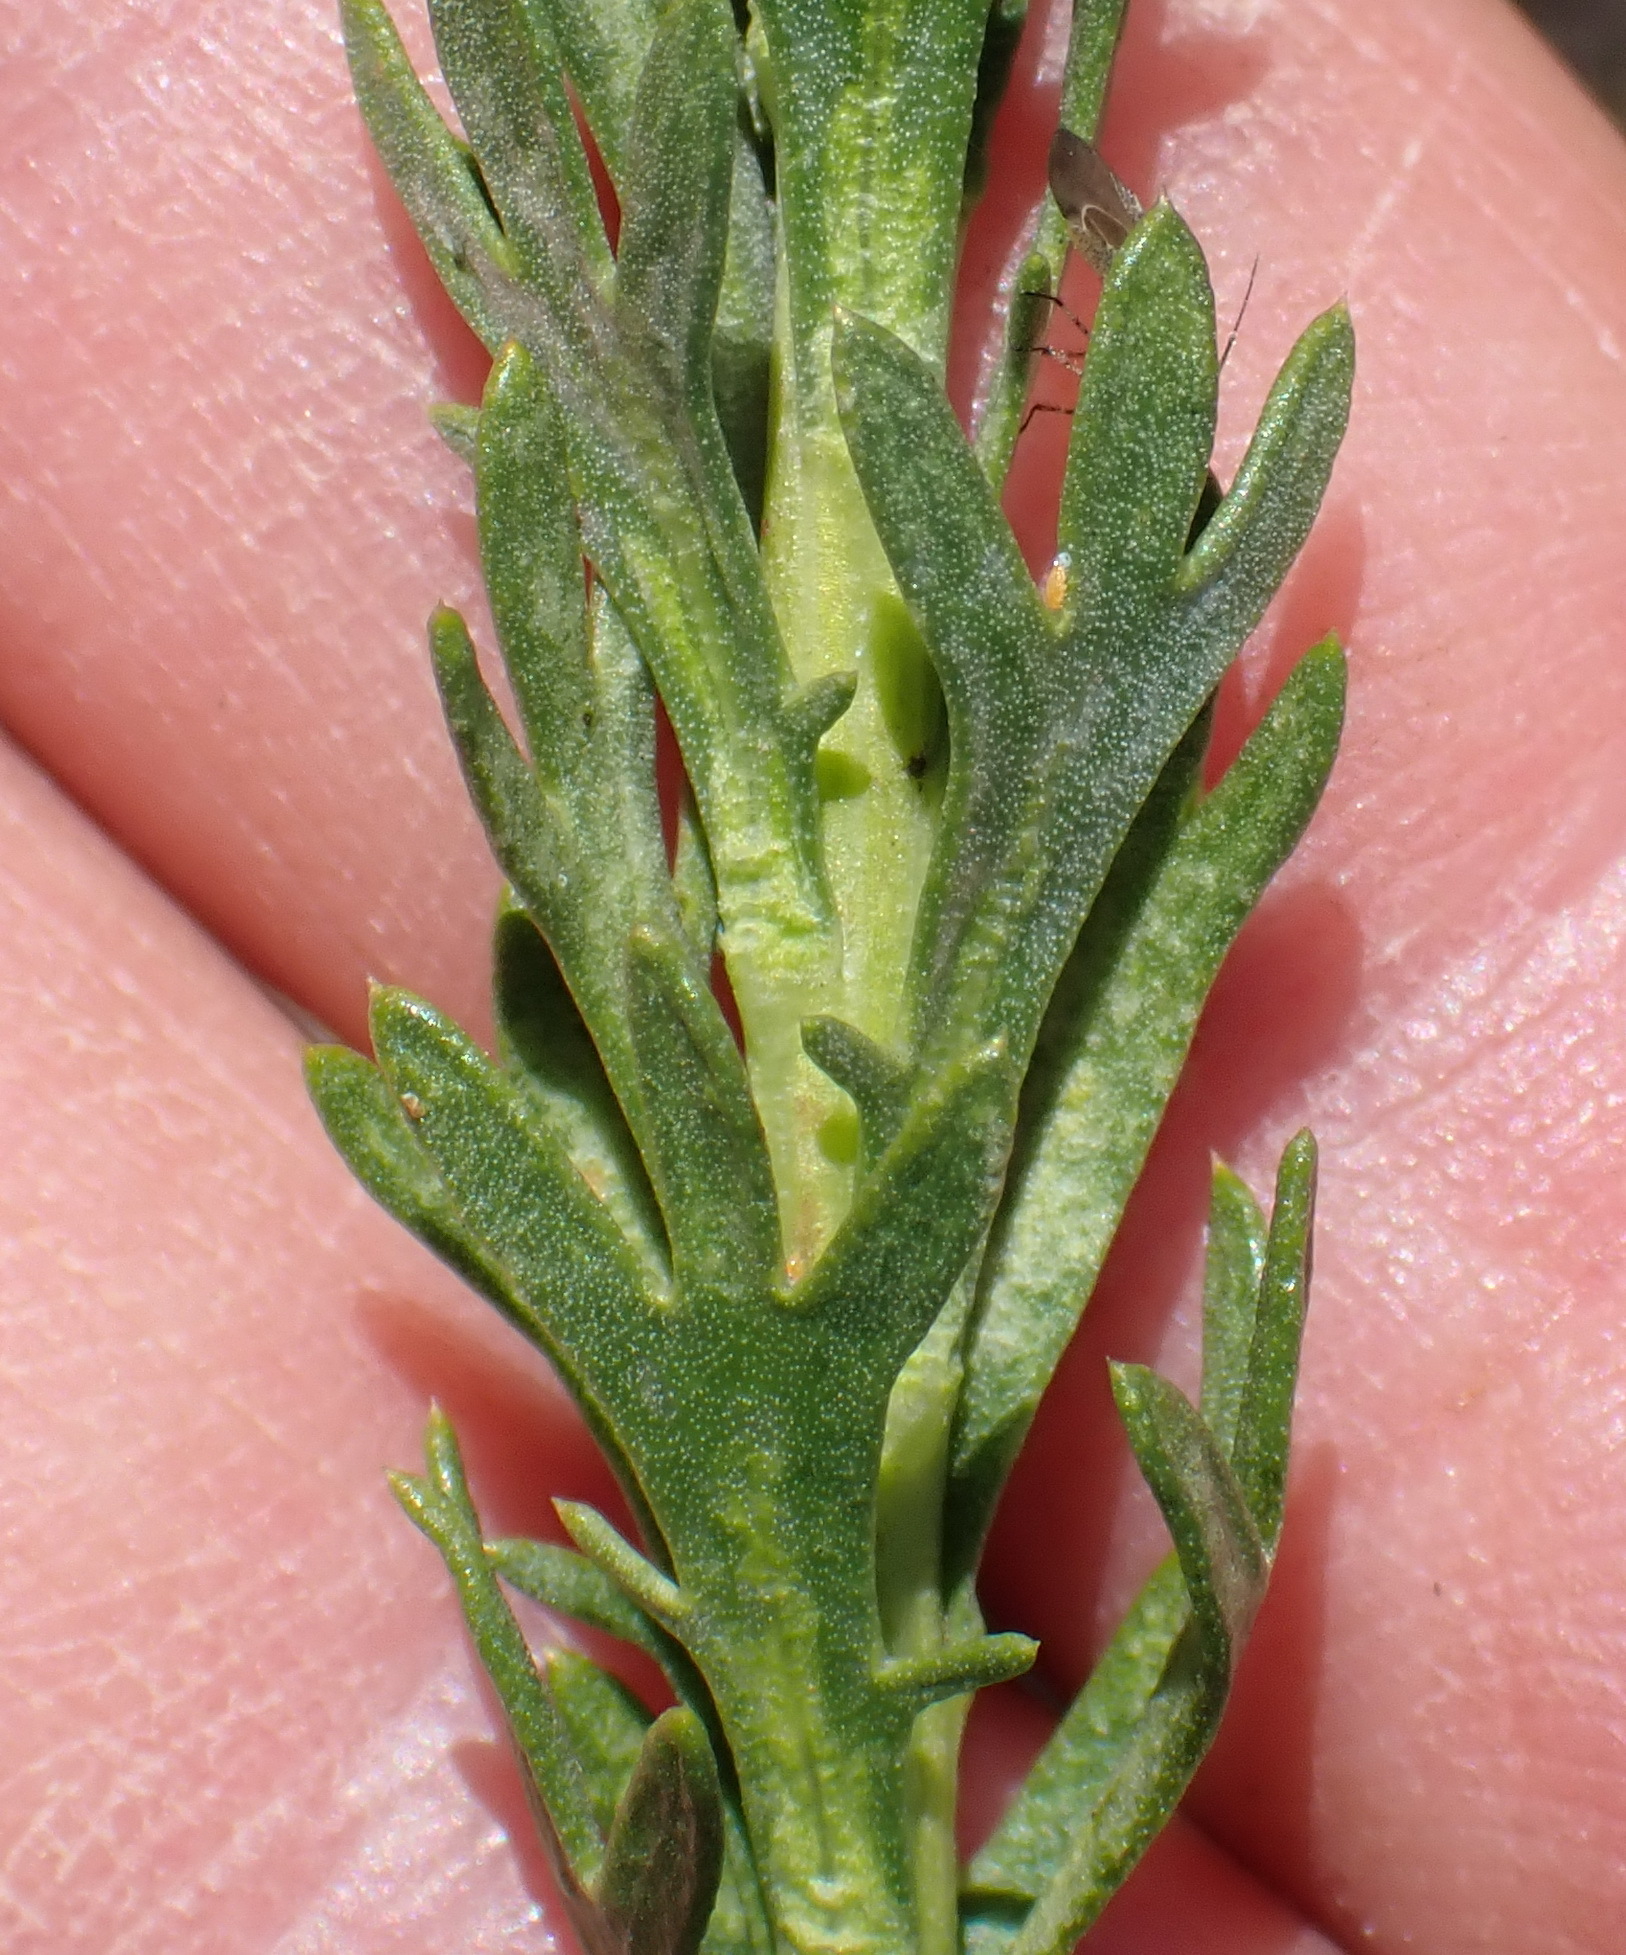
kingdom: Plantae
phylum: Tracheophyta
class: Magnoliopsida
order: Asterales
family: Asteraceae
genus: Athanasia
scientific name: Athanasia trifurcata
